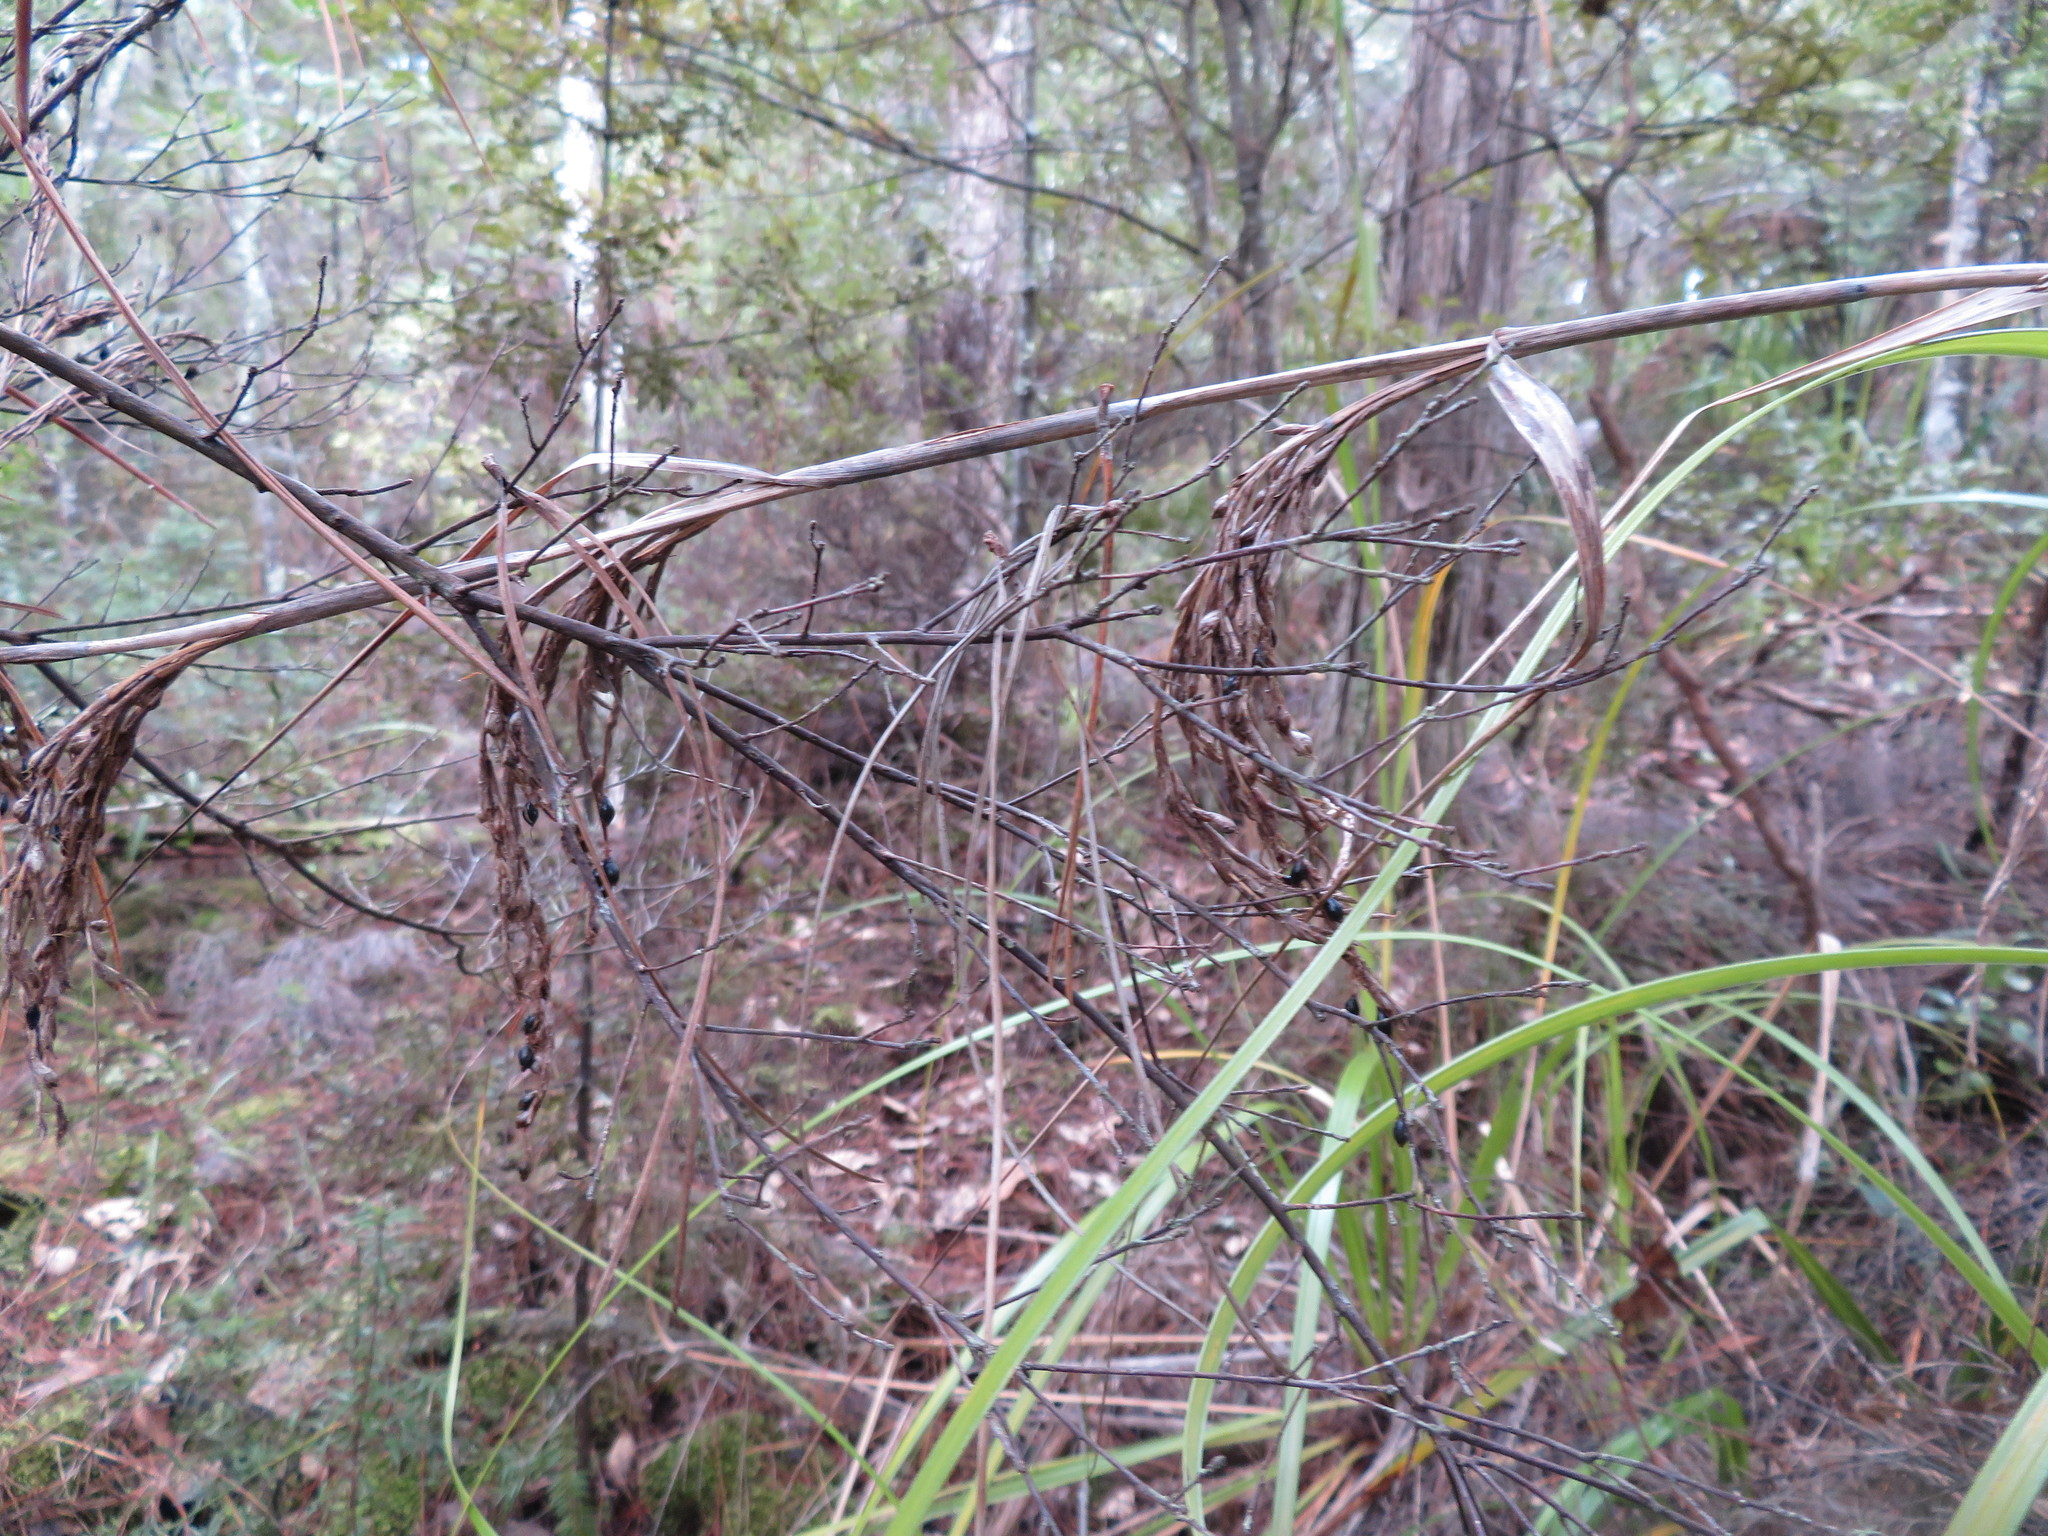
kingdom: Plantae
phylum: Tracheophyta
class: Liliopsida
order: Poales
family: Cyperaceae
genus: Gahnia
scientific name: Gahnia xanthocarpa
